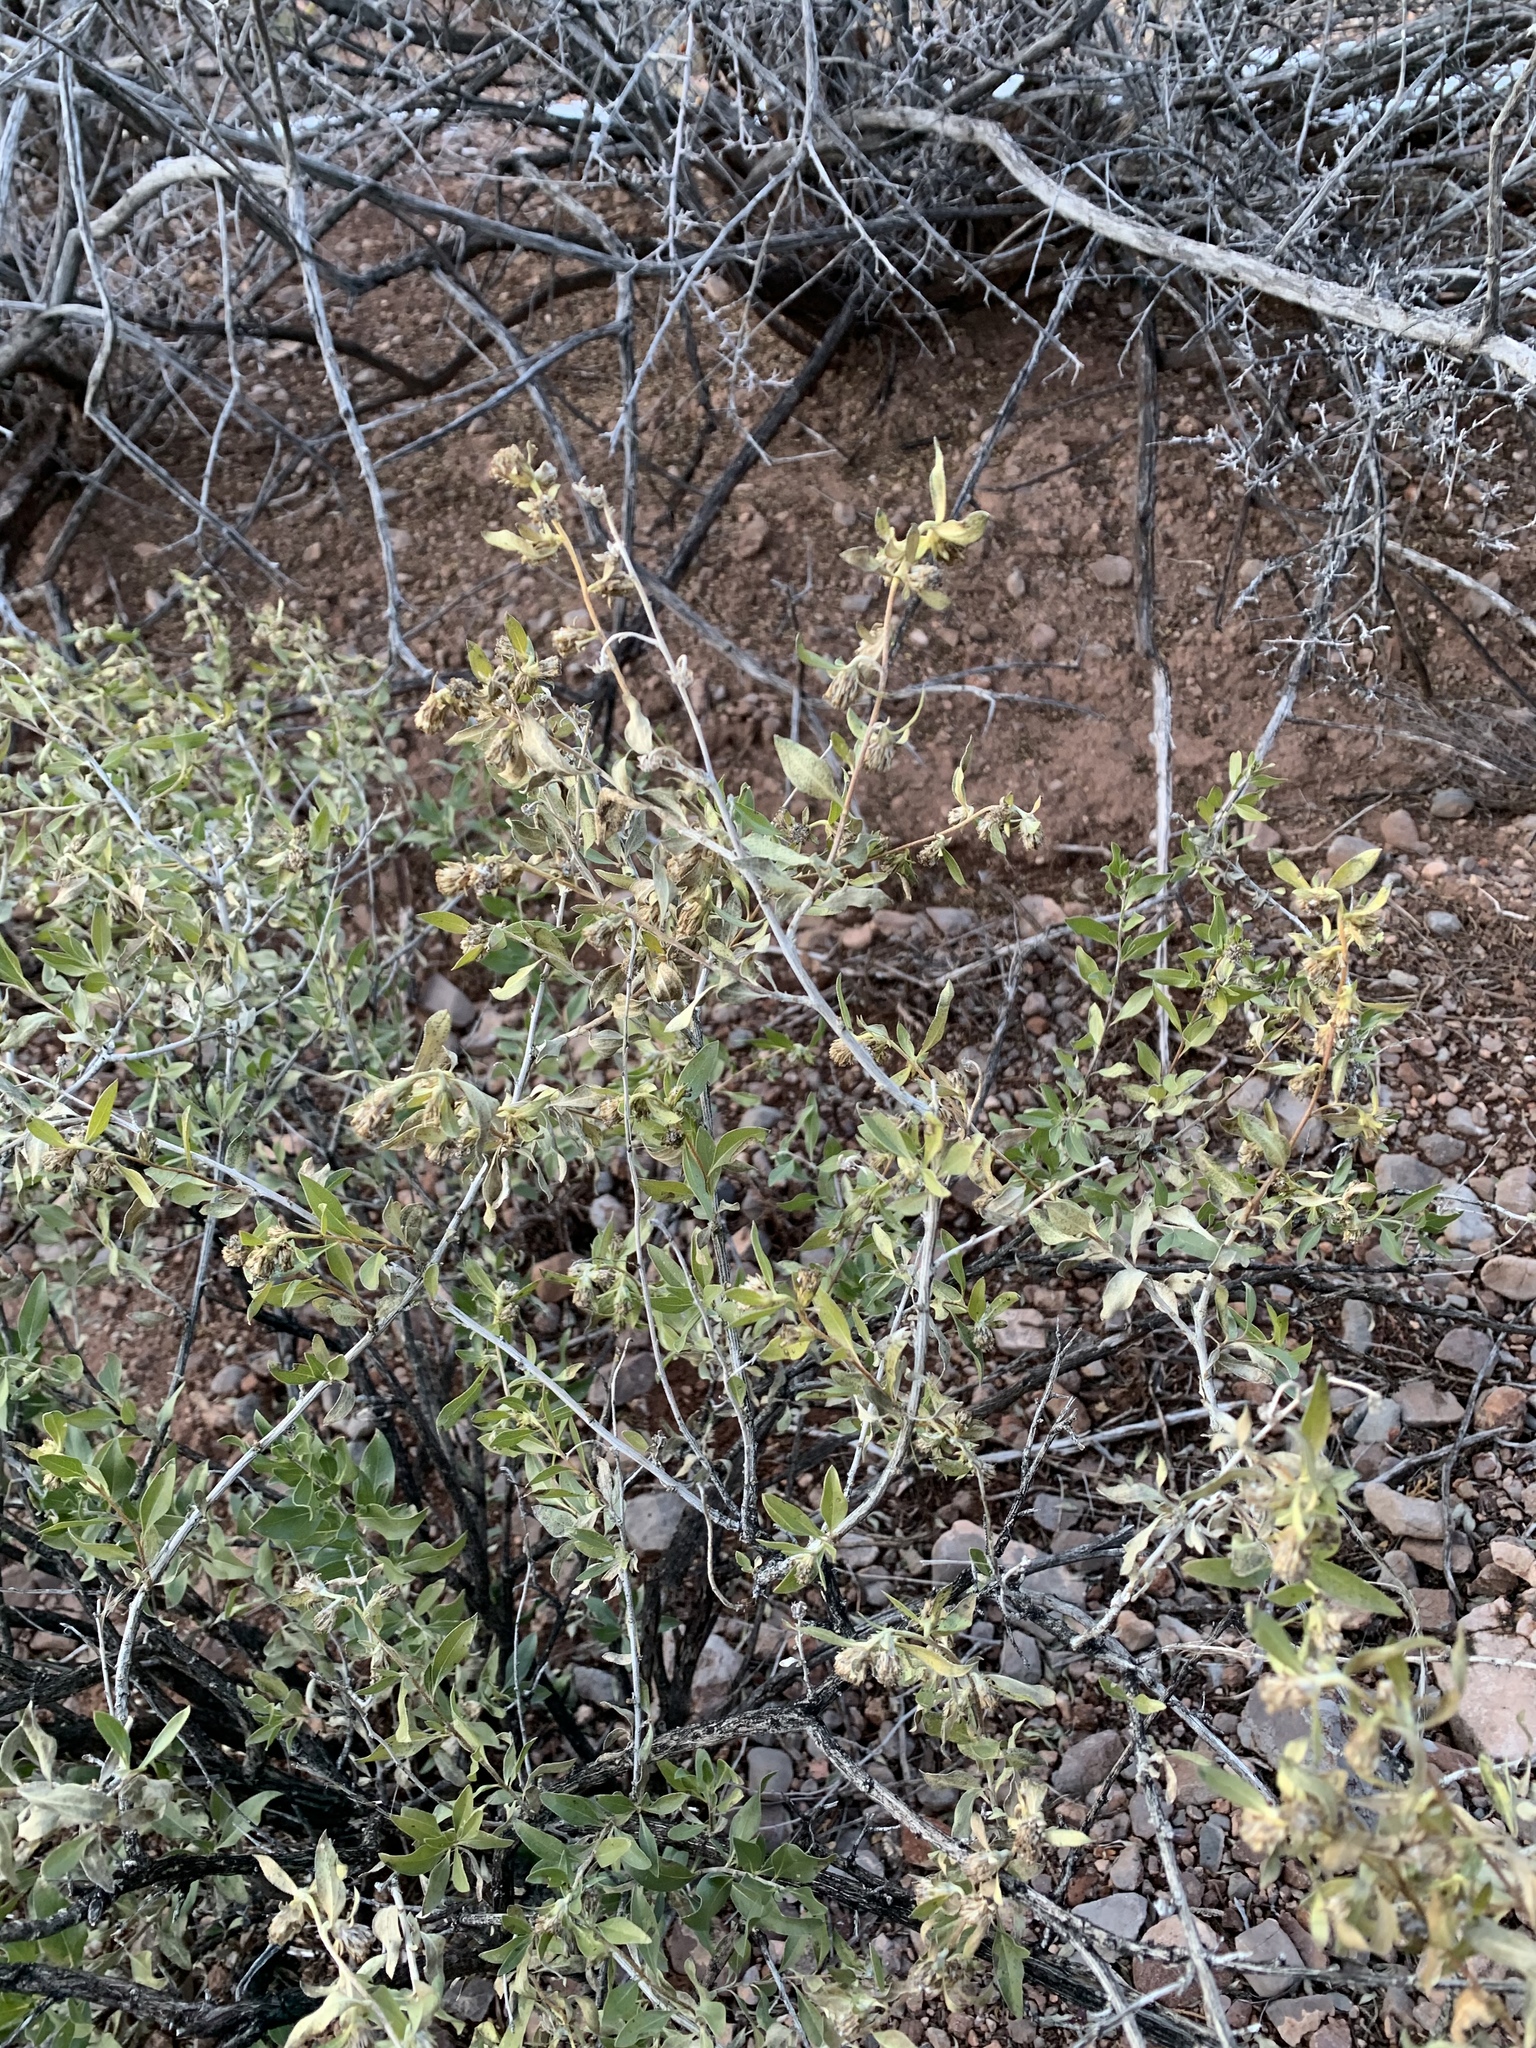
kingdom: Plantae
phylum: Tracheophyta
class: Magnoliopsida
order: Asterales
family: Asteraceae
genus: Flourensia
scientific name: Flourensia cernua
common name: Varnishbush
